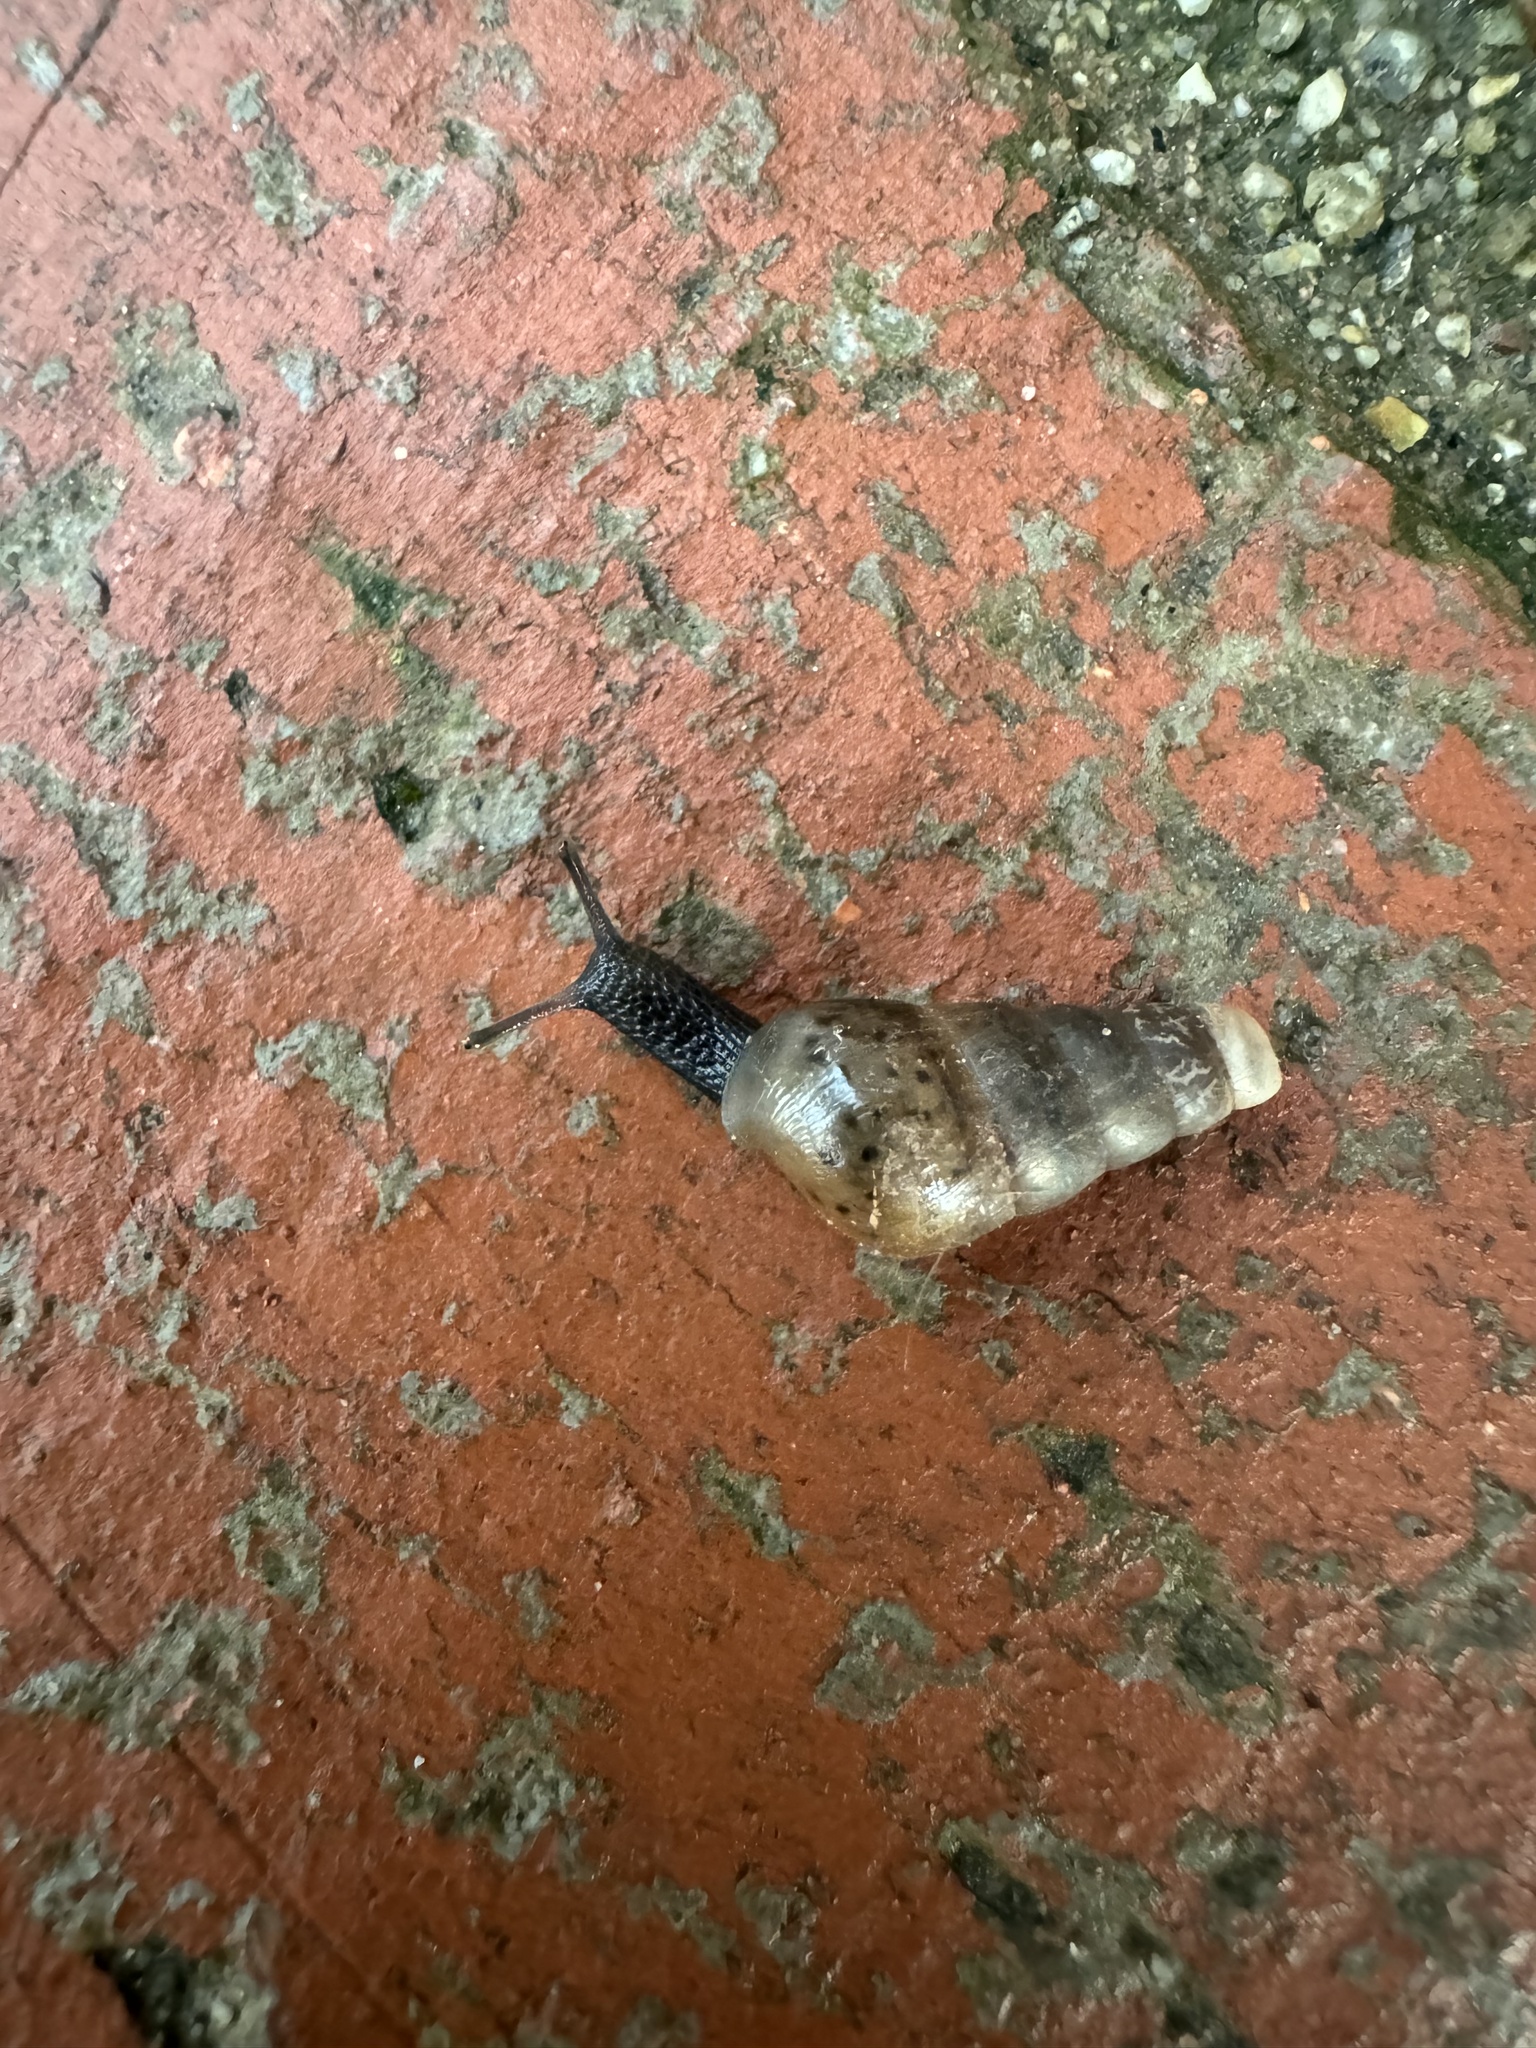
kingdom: Animalia
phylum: Mollusca
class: Gastropoda
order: Stylommatophora
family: Achatinidae
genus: Rumina
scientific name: Rumina decollata
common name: Decollate snail
